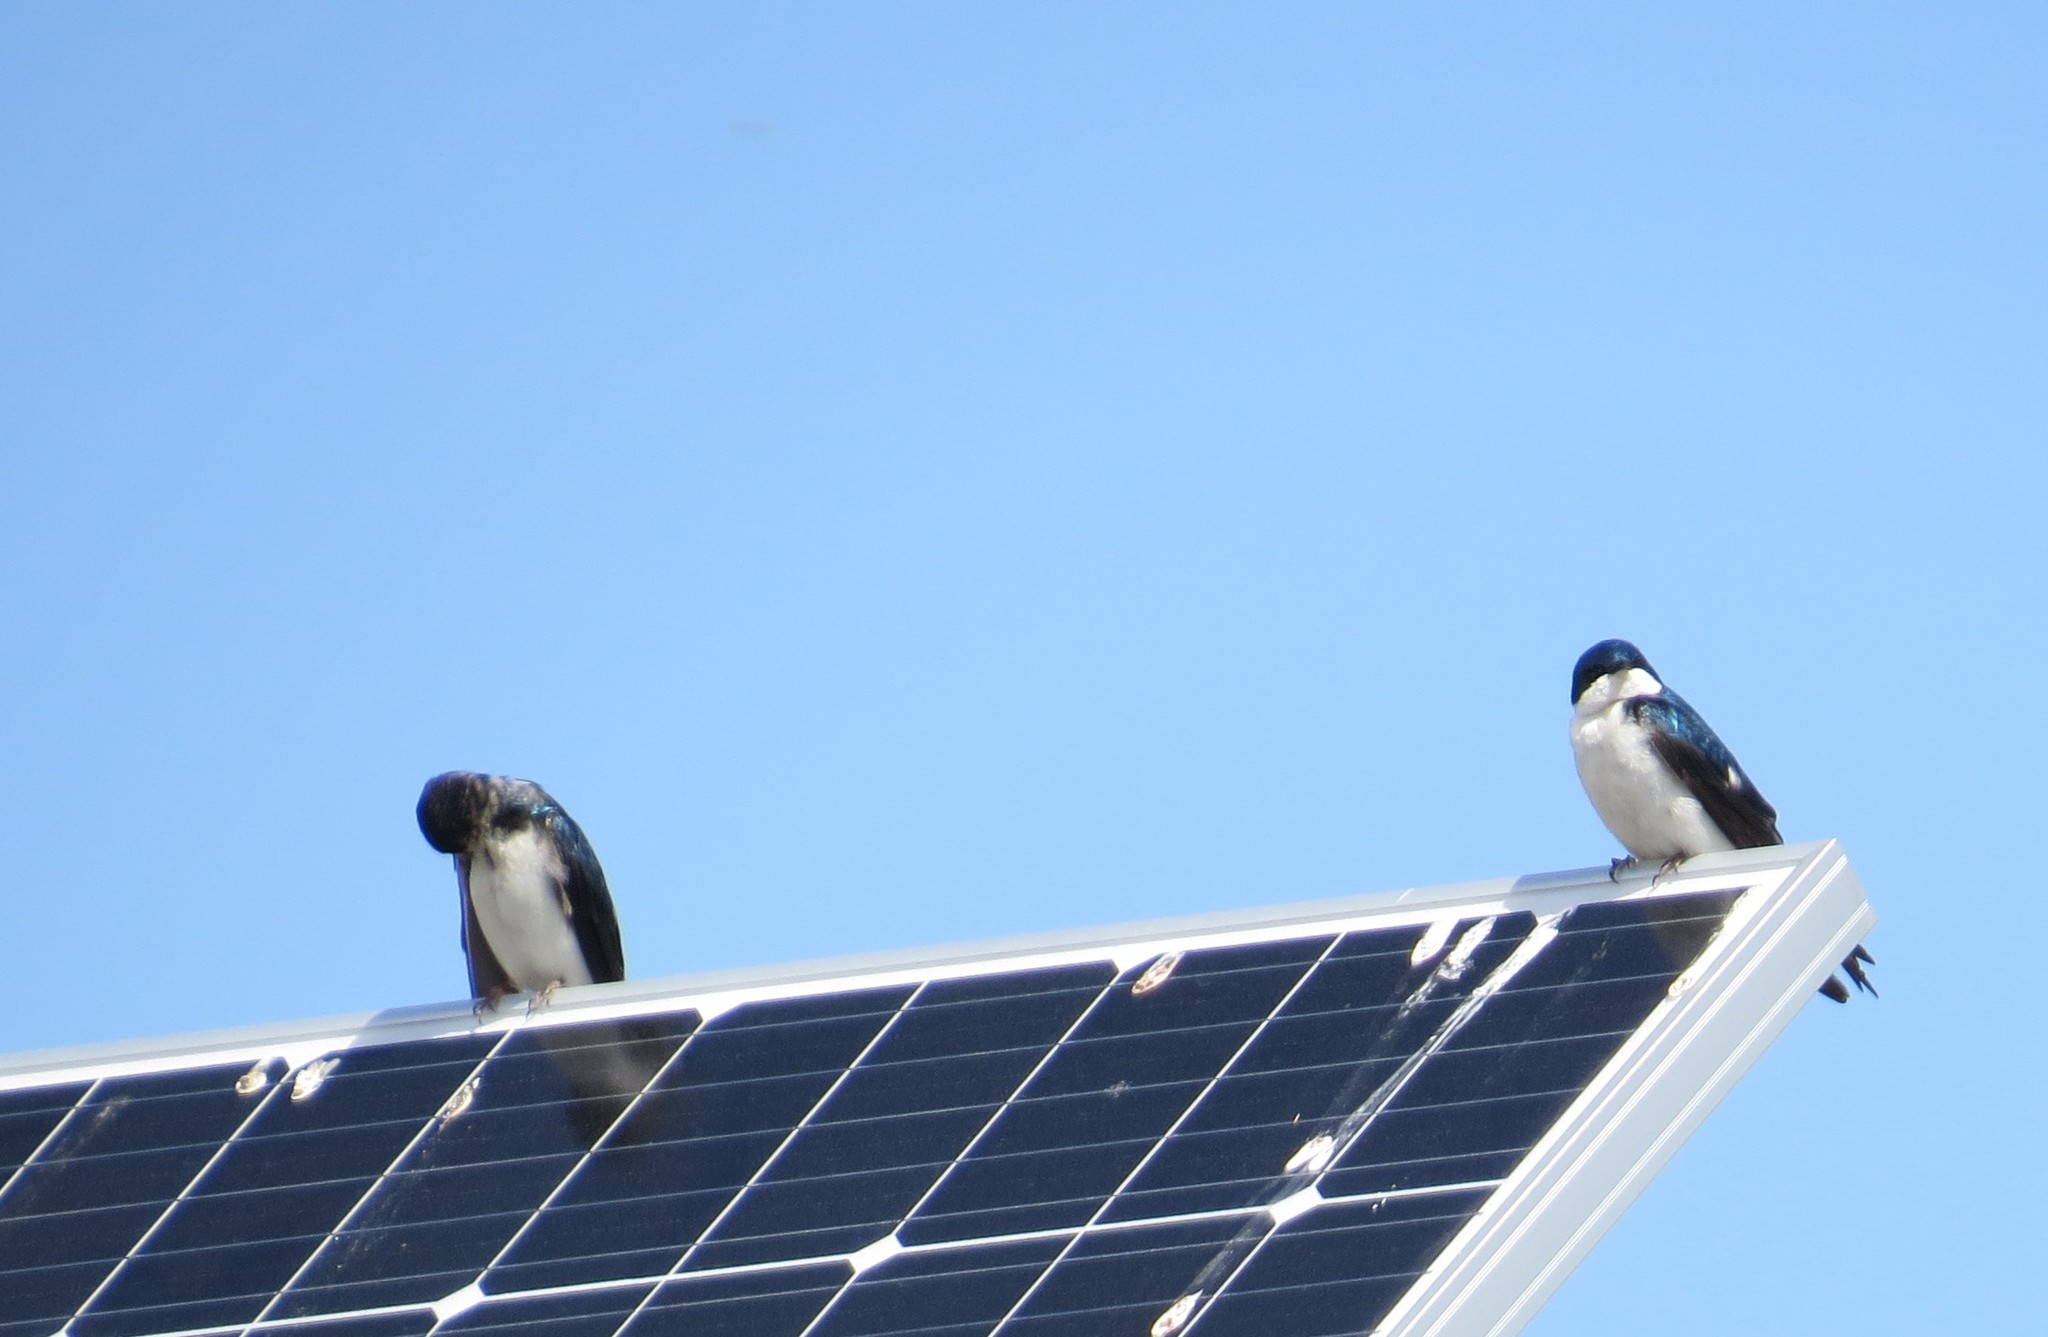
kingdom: Animalia
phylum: Chordata
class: Aves
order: Passeriformes
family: Hirundinidae
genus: Tachycineta
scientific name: Tachycineta bicolor
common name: Tree swallow
